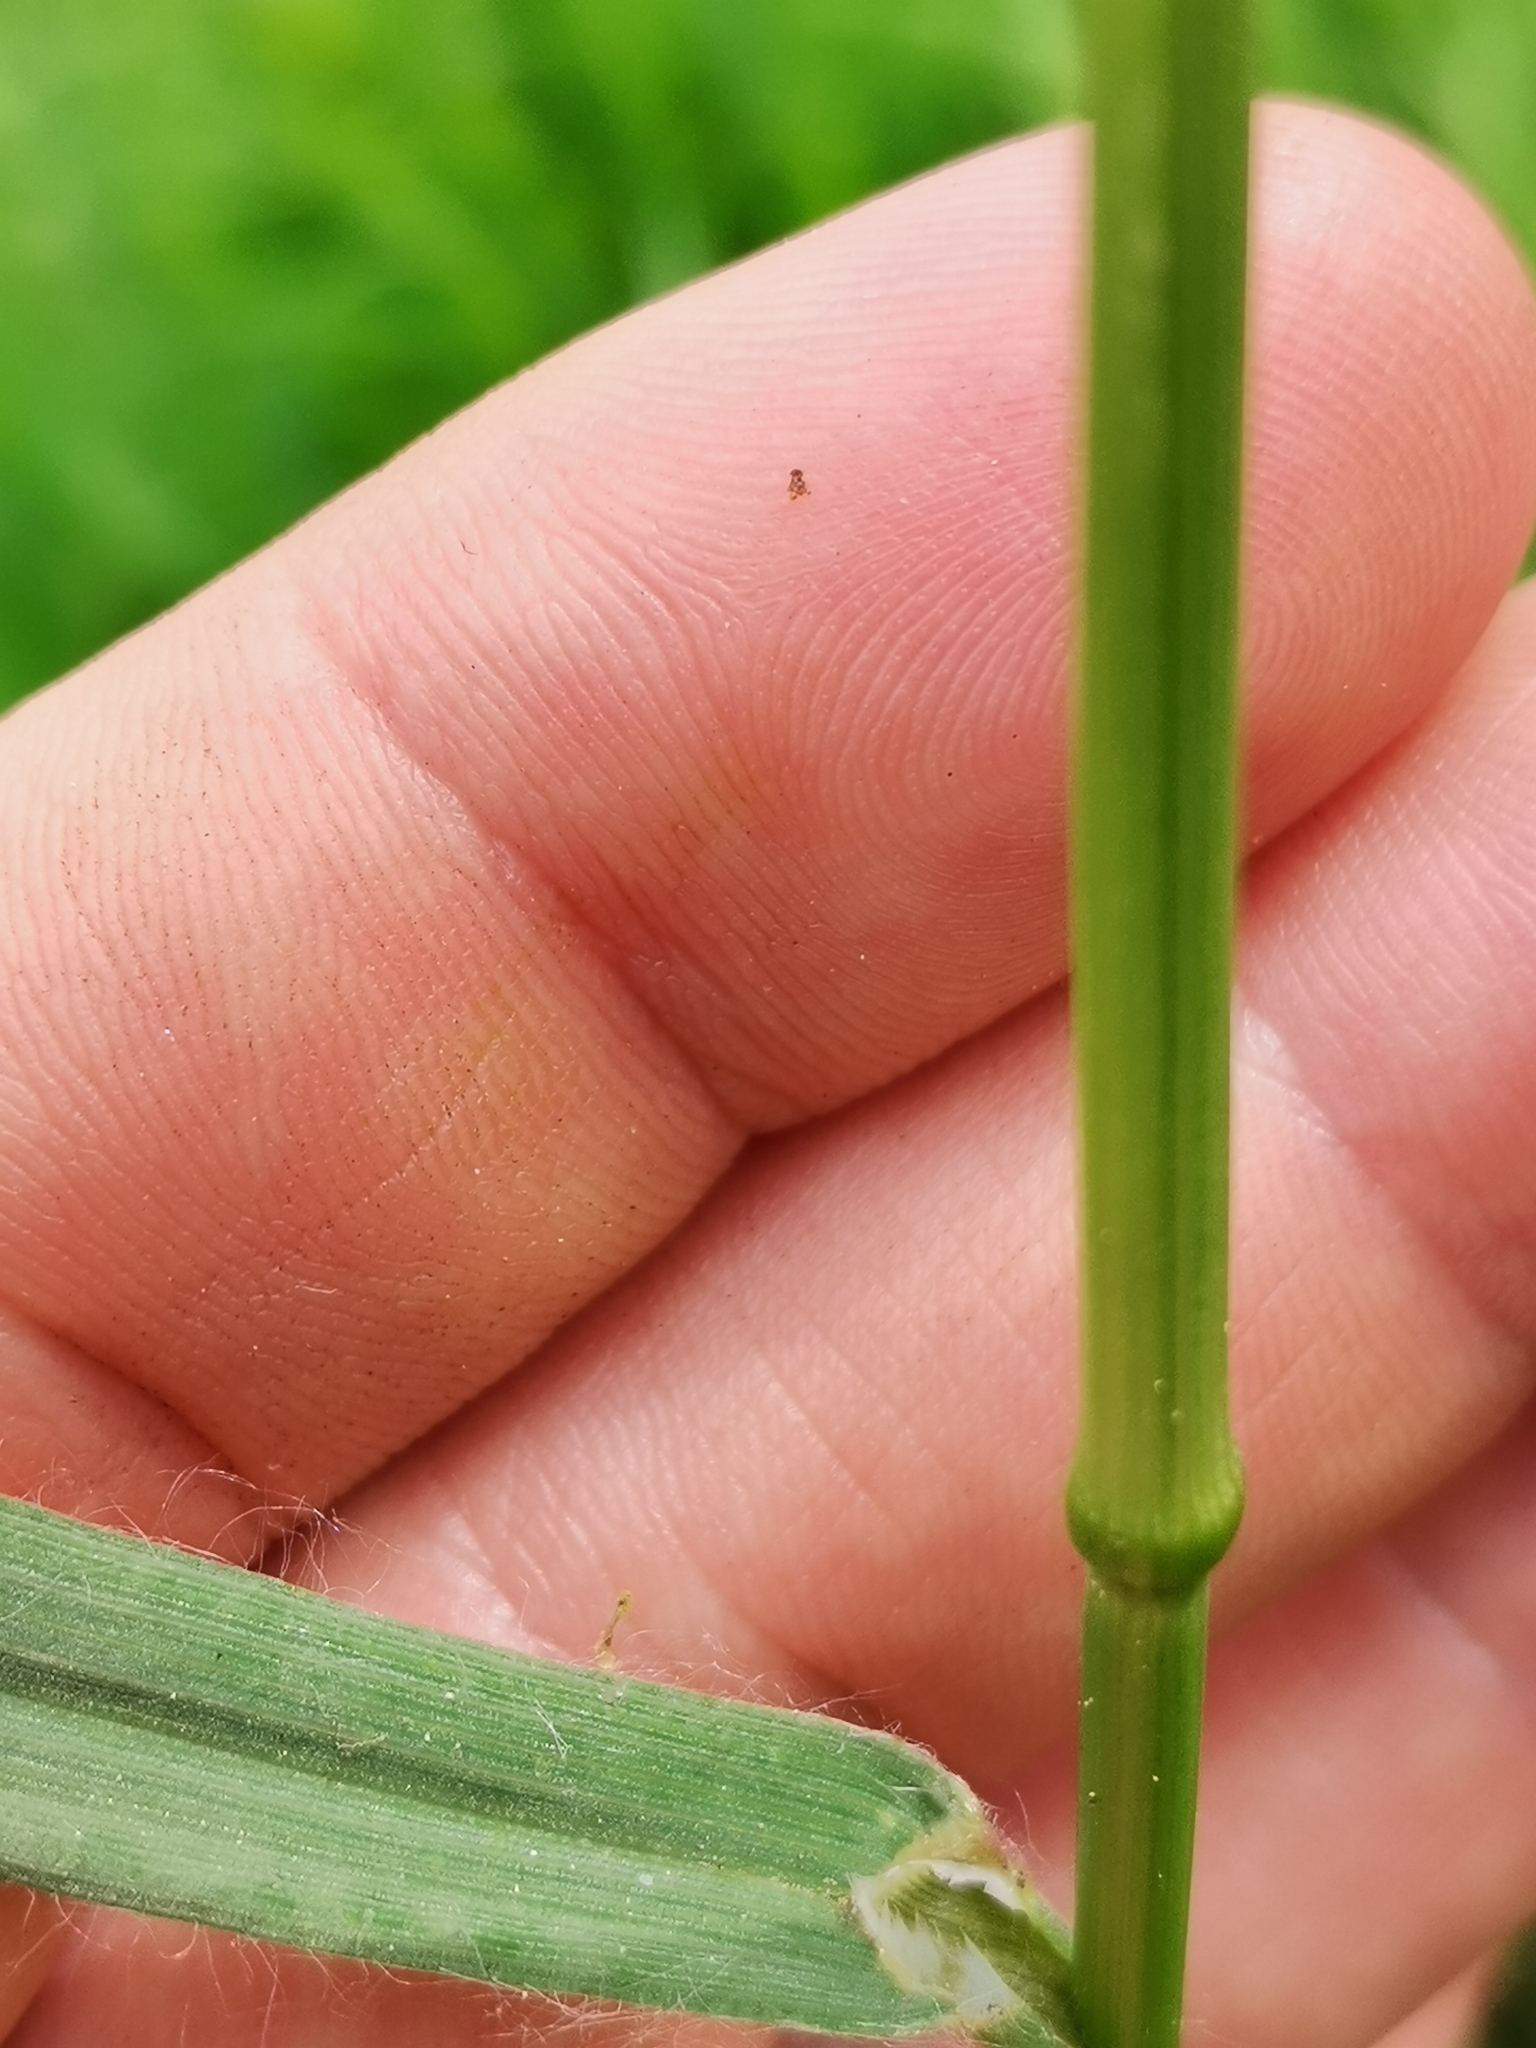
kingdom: Plantae
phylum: Tracheophyta
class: Liliopsida
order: Poales
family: Poaceae
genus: Bromus
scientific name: Bromus sterilis
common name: Poverty brome
